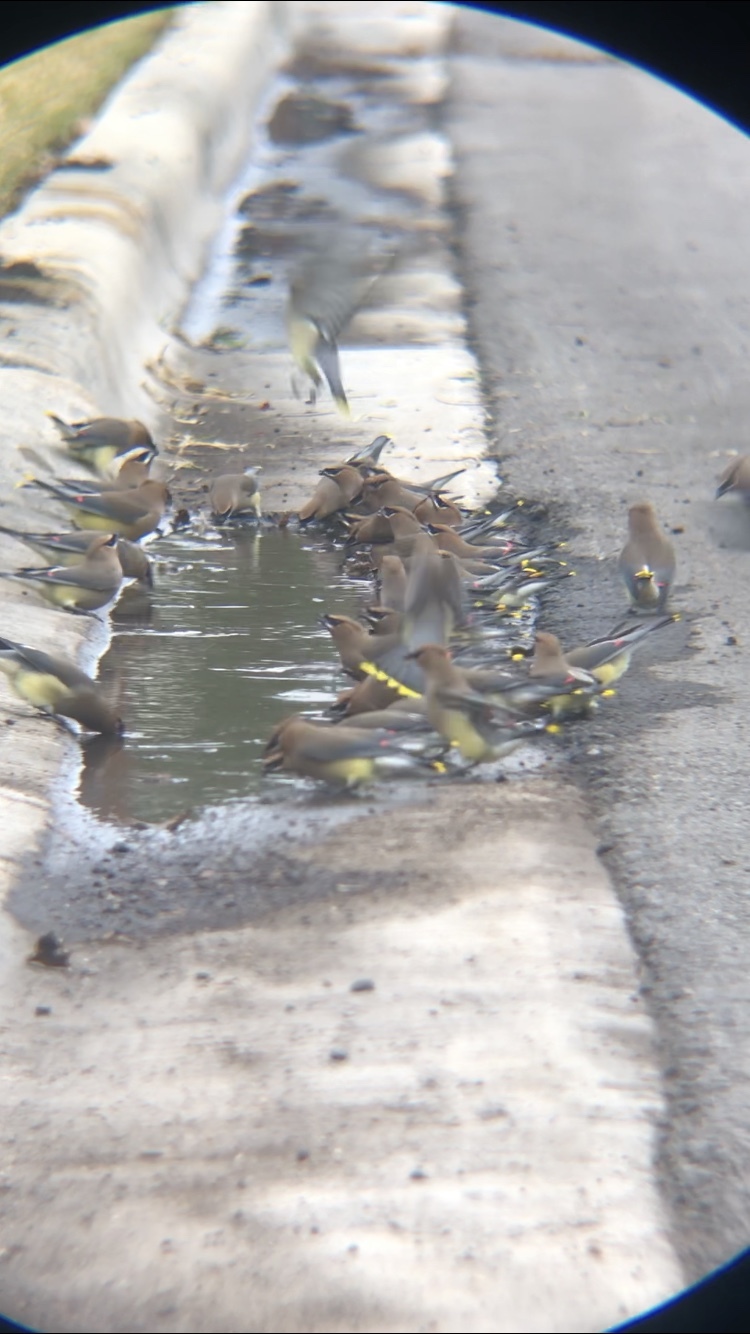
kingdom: Animalia
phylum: Chordata
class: Aves
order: Passeriformes
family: Bombycillidae
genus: Bombycilla
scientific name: Bombycilla cedrorum
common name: Cedar waxwing
